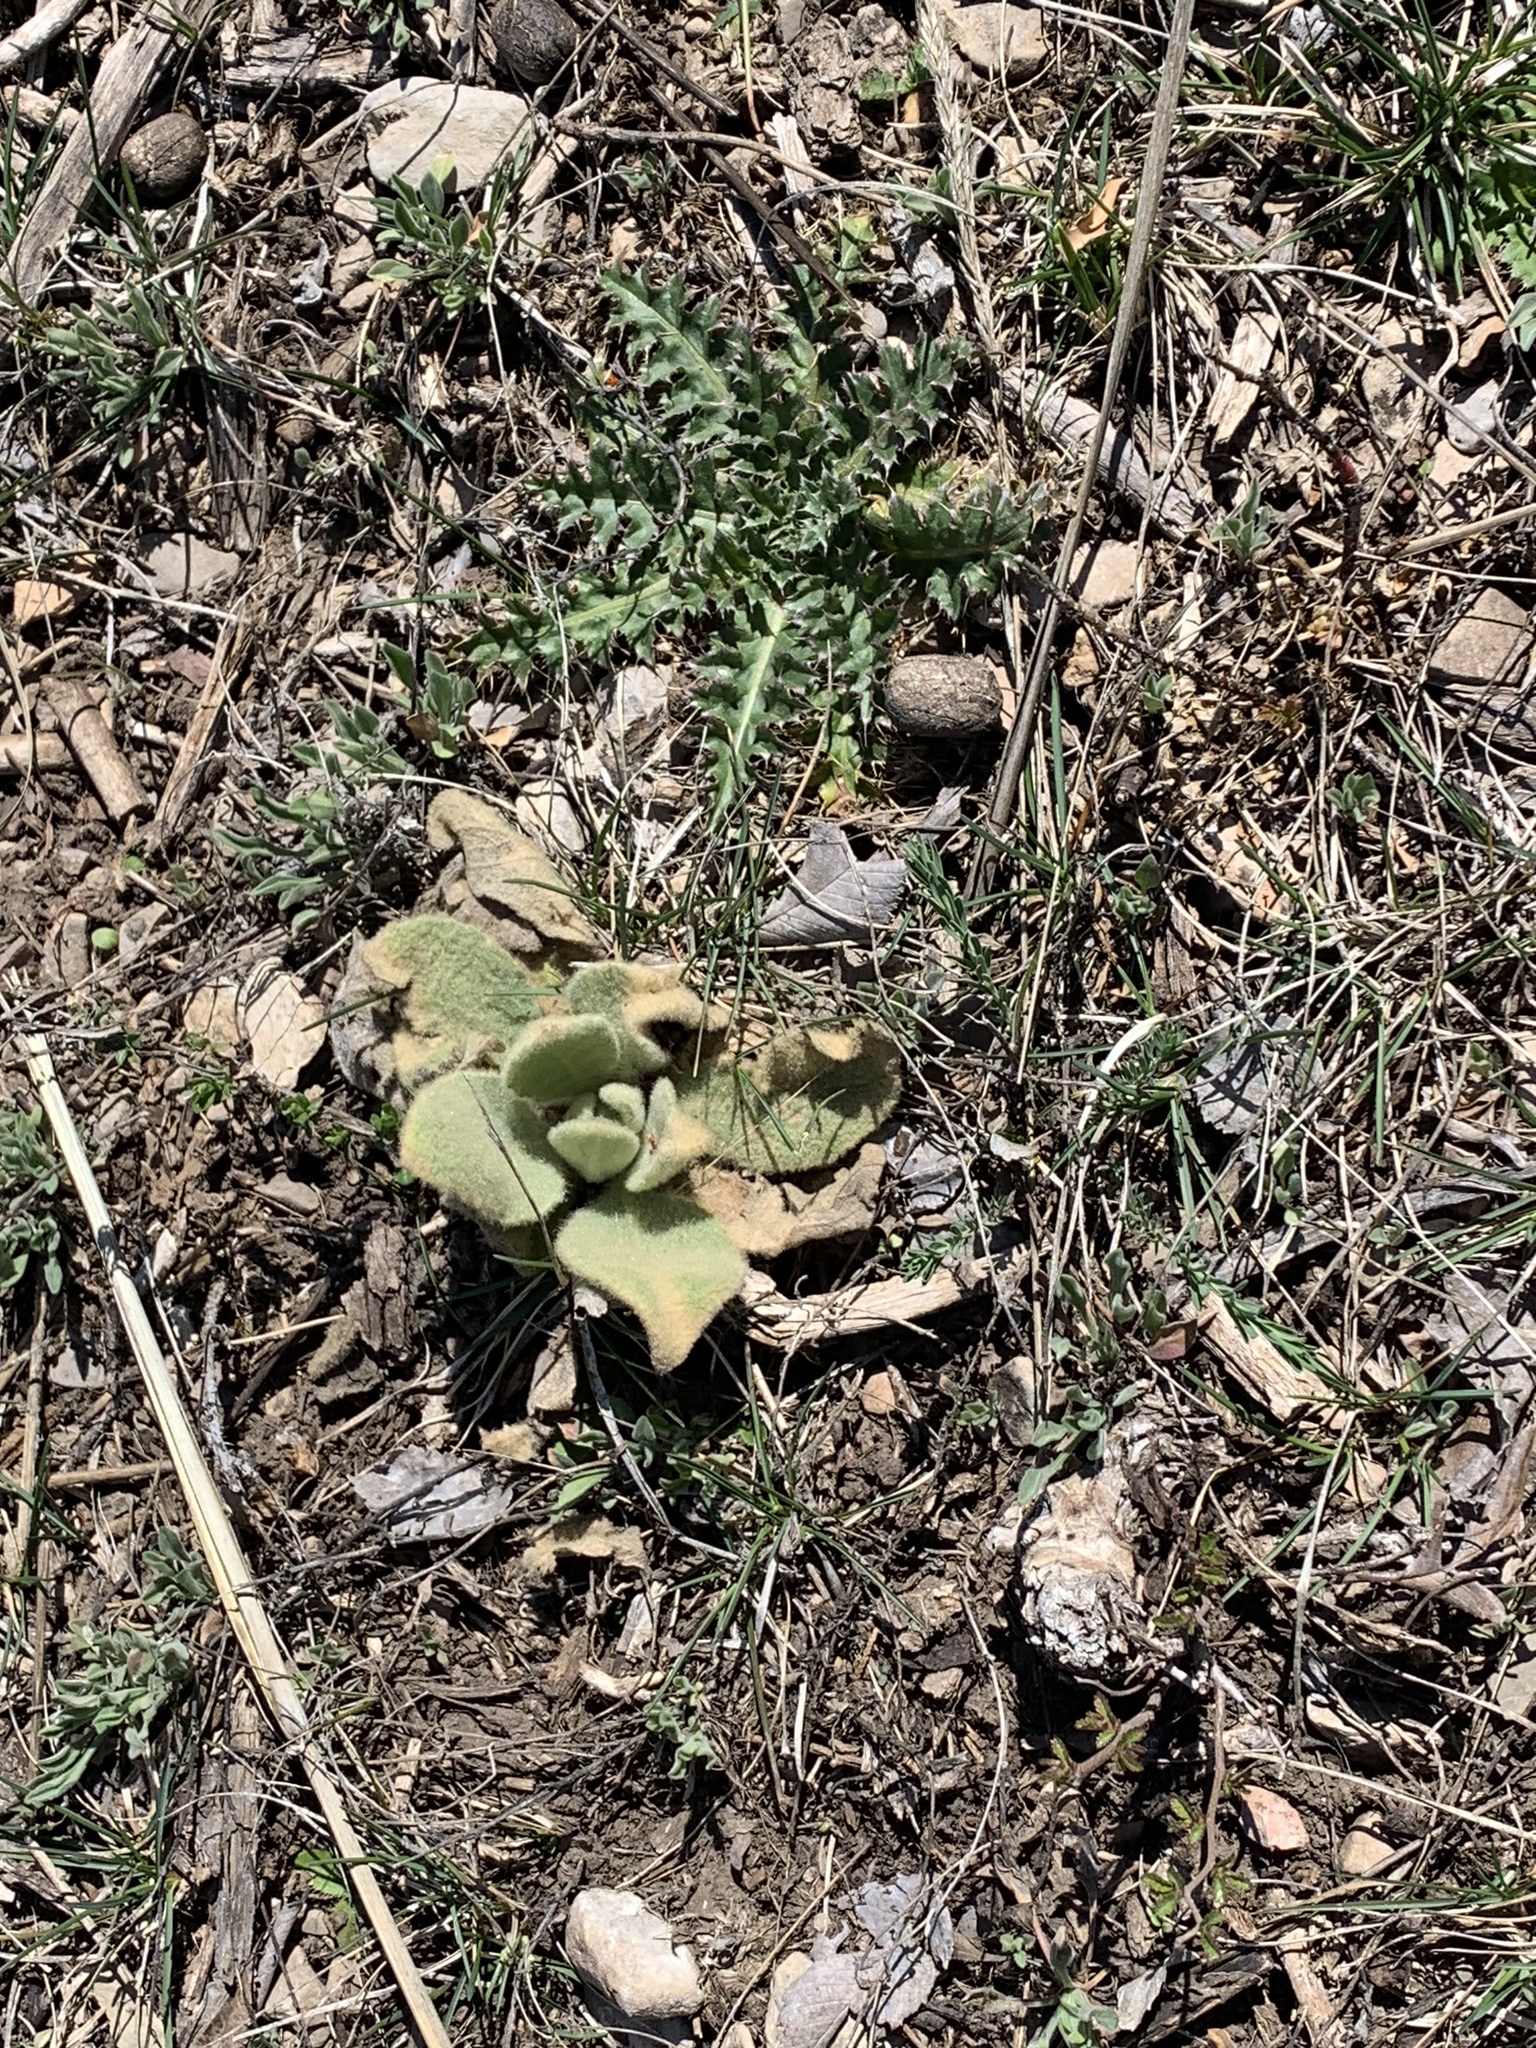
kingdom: Plantae
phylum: Tracheophyta
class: Magnoliopsida
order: Lamiales
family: Scrophulariaceae
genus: Verbascum
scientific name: Verbascum thapsus
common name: Common mullein
